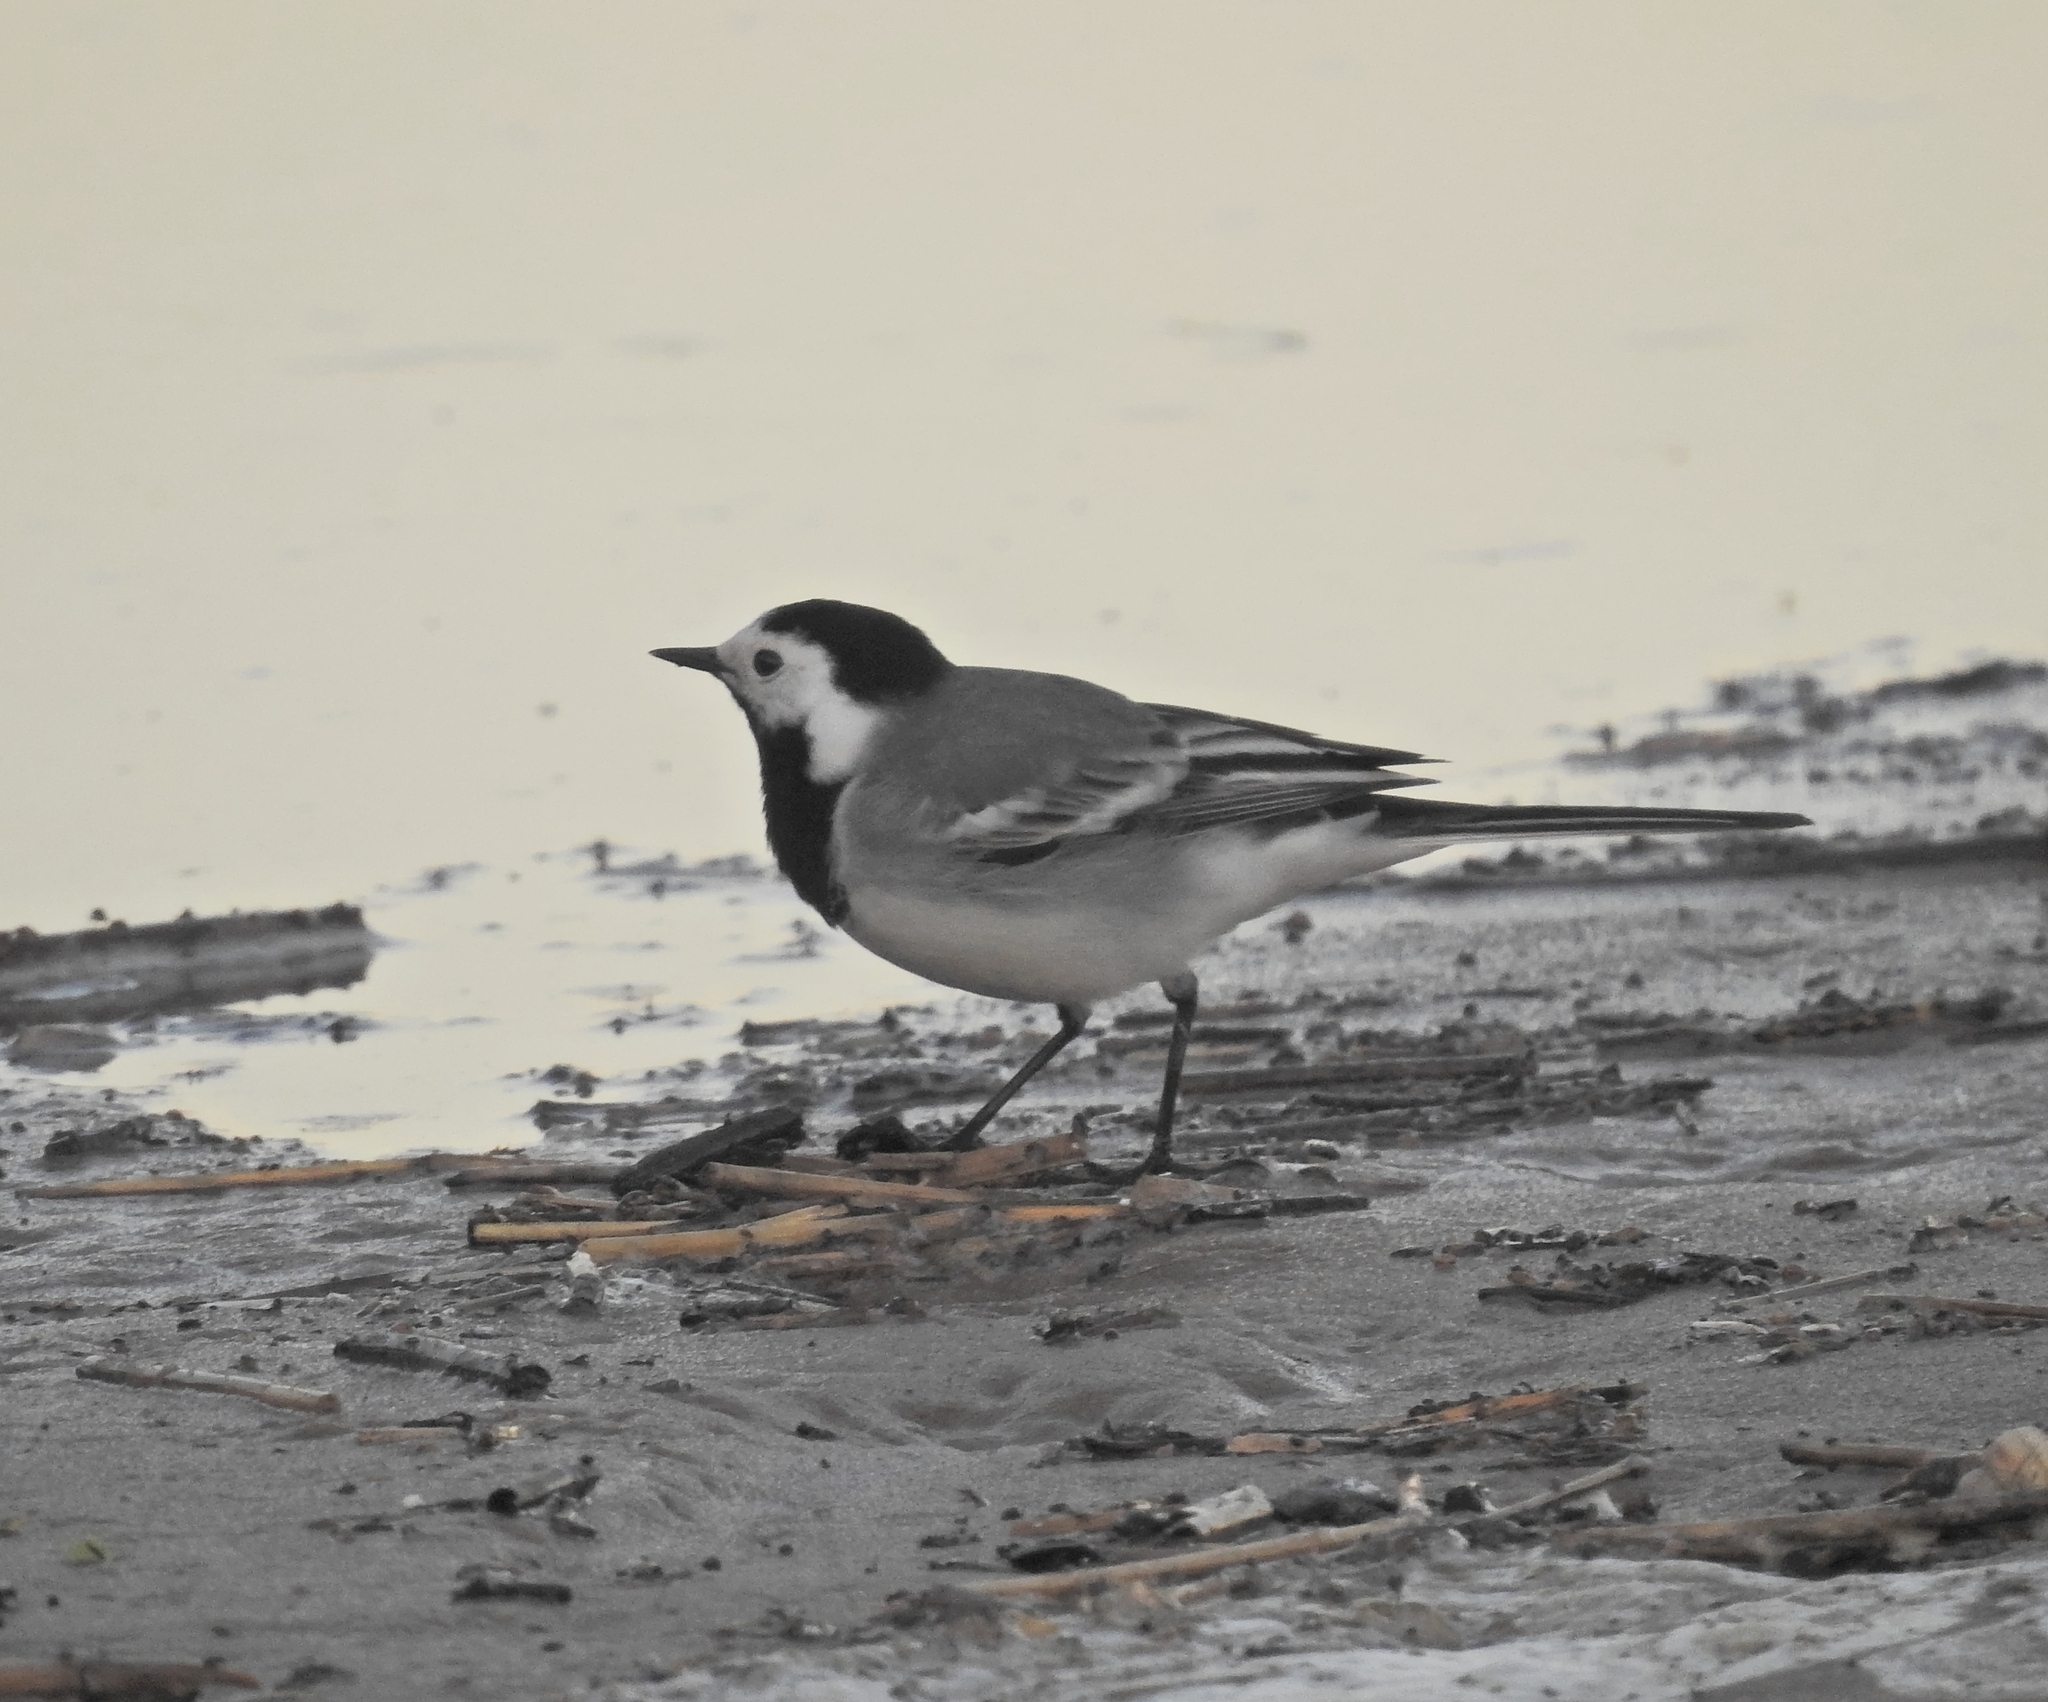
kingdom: Animalia
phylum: Chordata
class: Aves
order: Passeriformes
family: Motacillidae
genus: Motacilla
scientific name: Motacilla alba
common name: White wagtail
